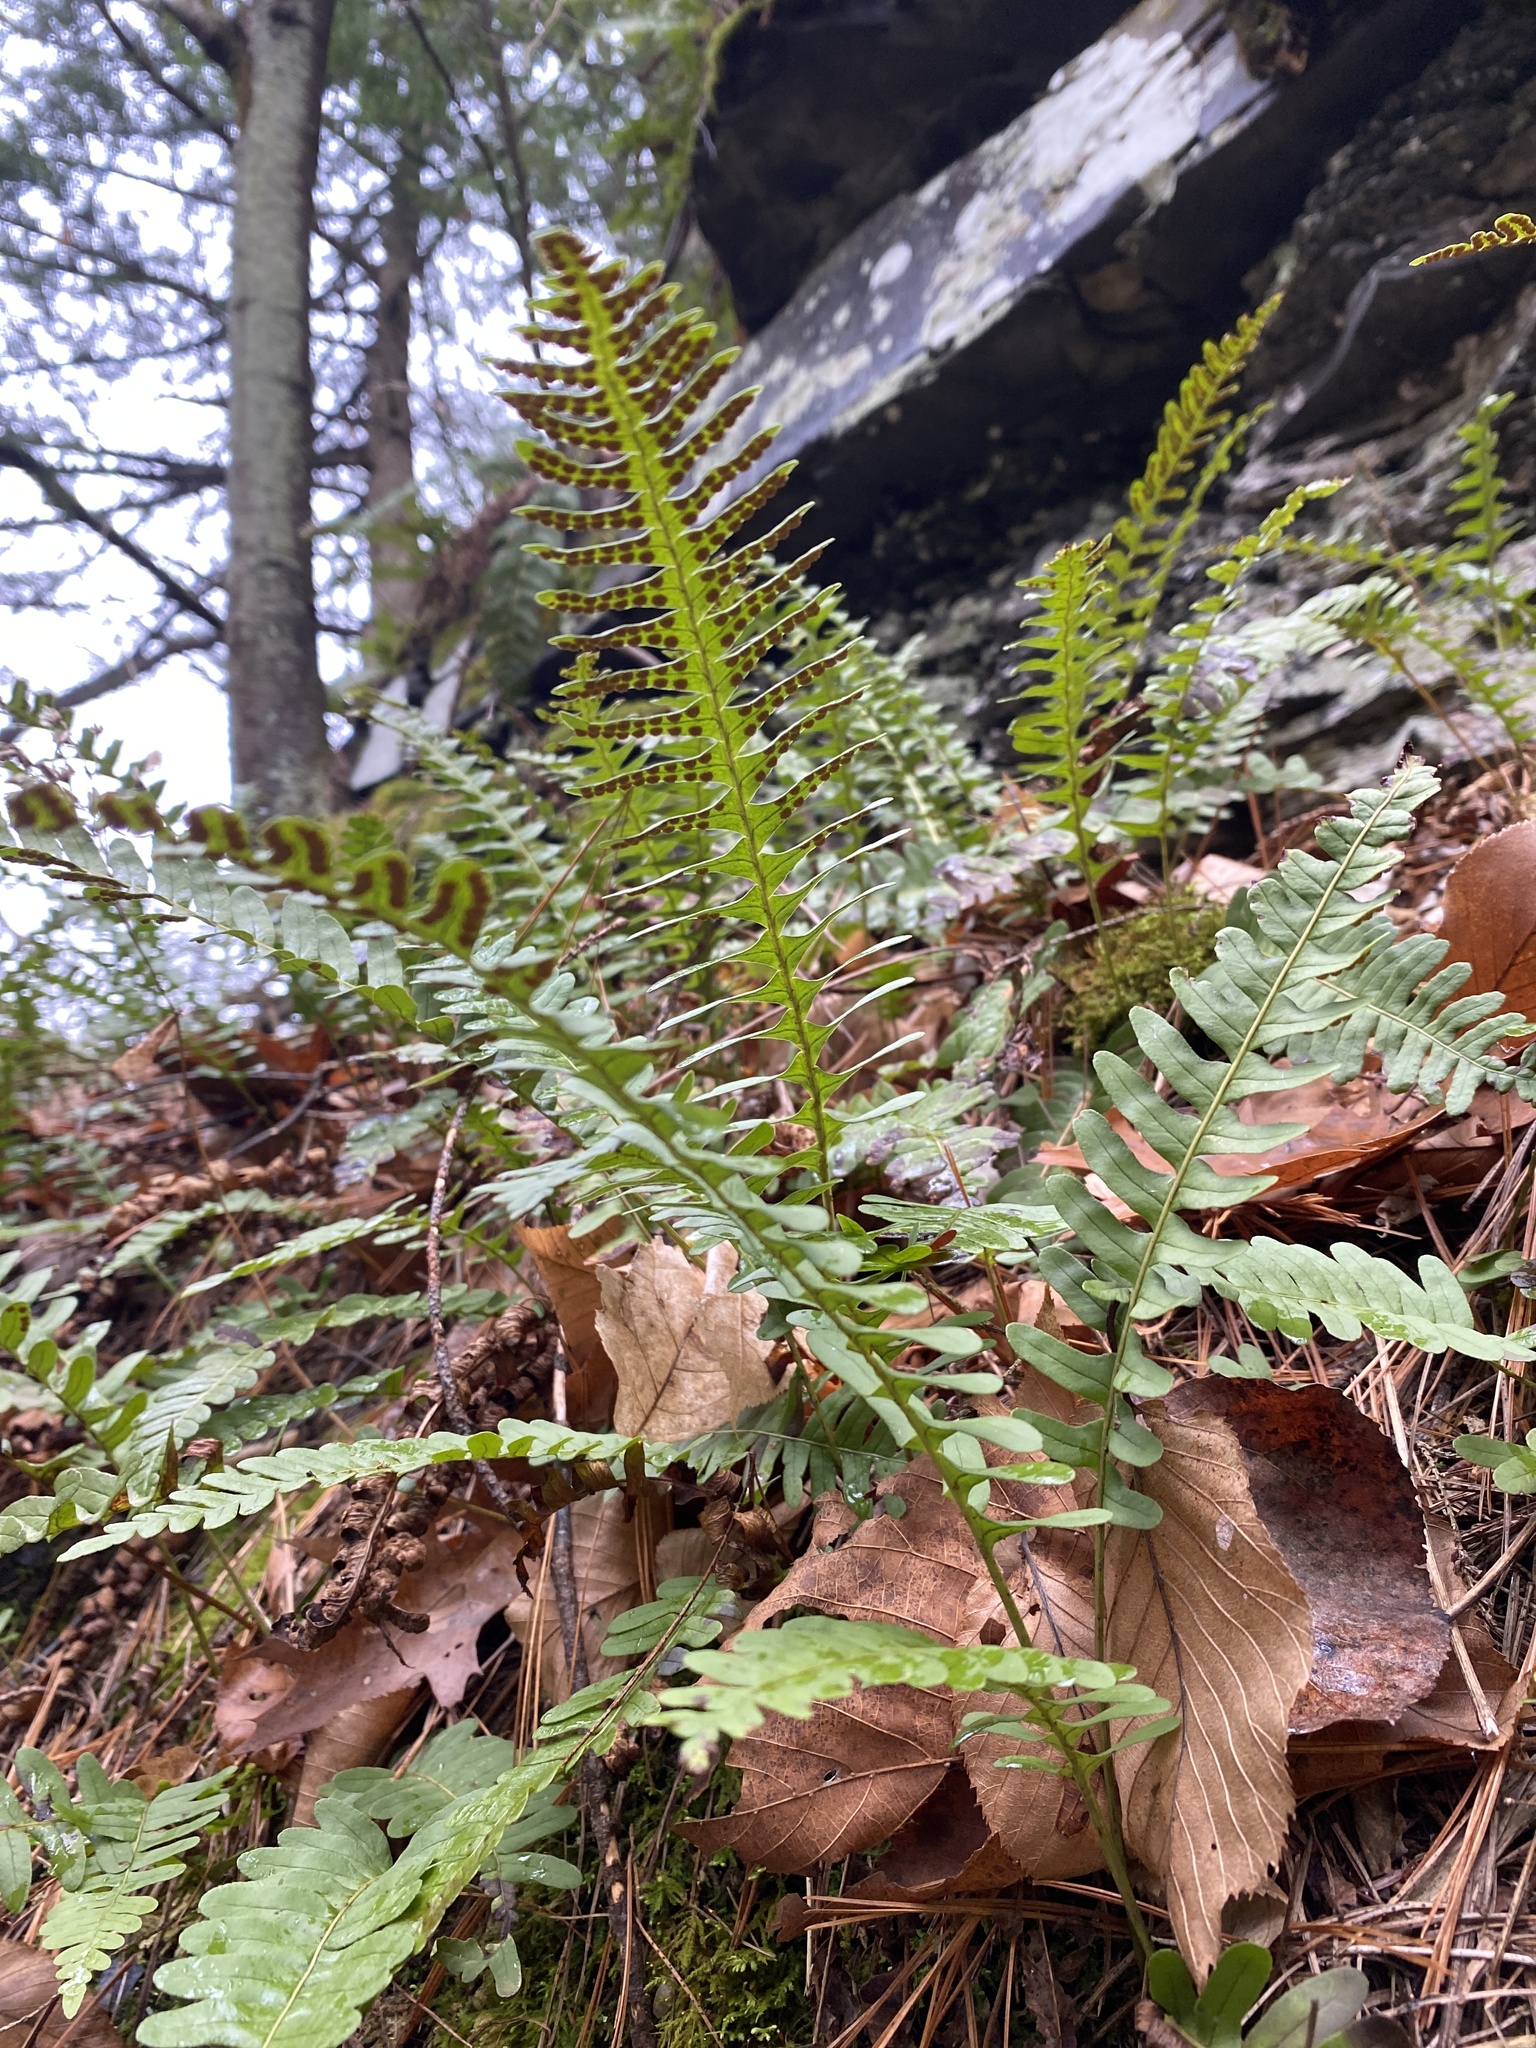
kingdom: Plantae
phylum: Tracheophyta
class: Polypodiopsida
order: Polypodiales
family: Polypodiaceae
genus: Polypodium
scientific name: Polypodium virginianum
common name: American wall fern
